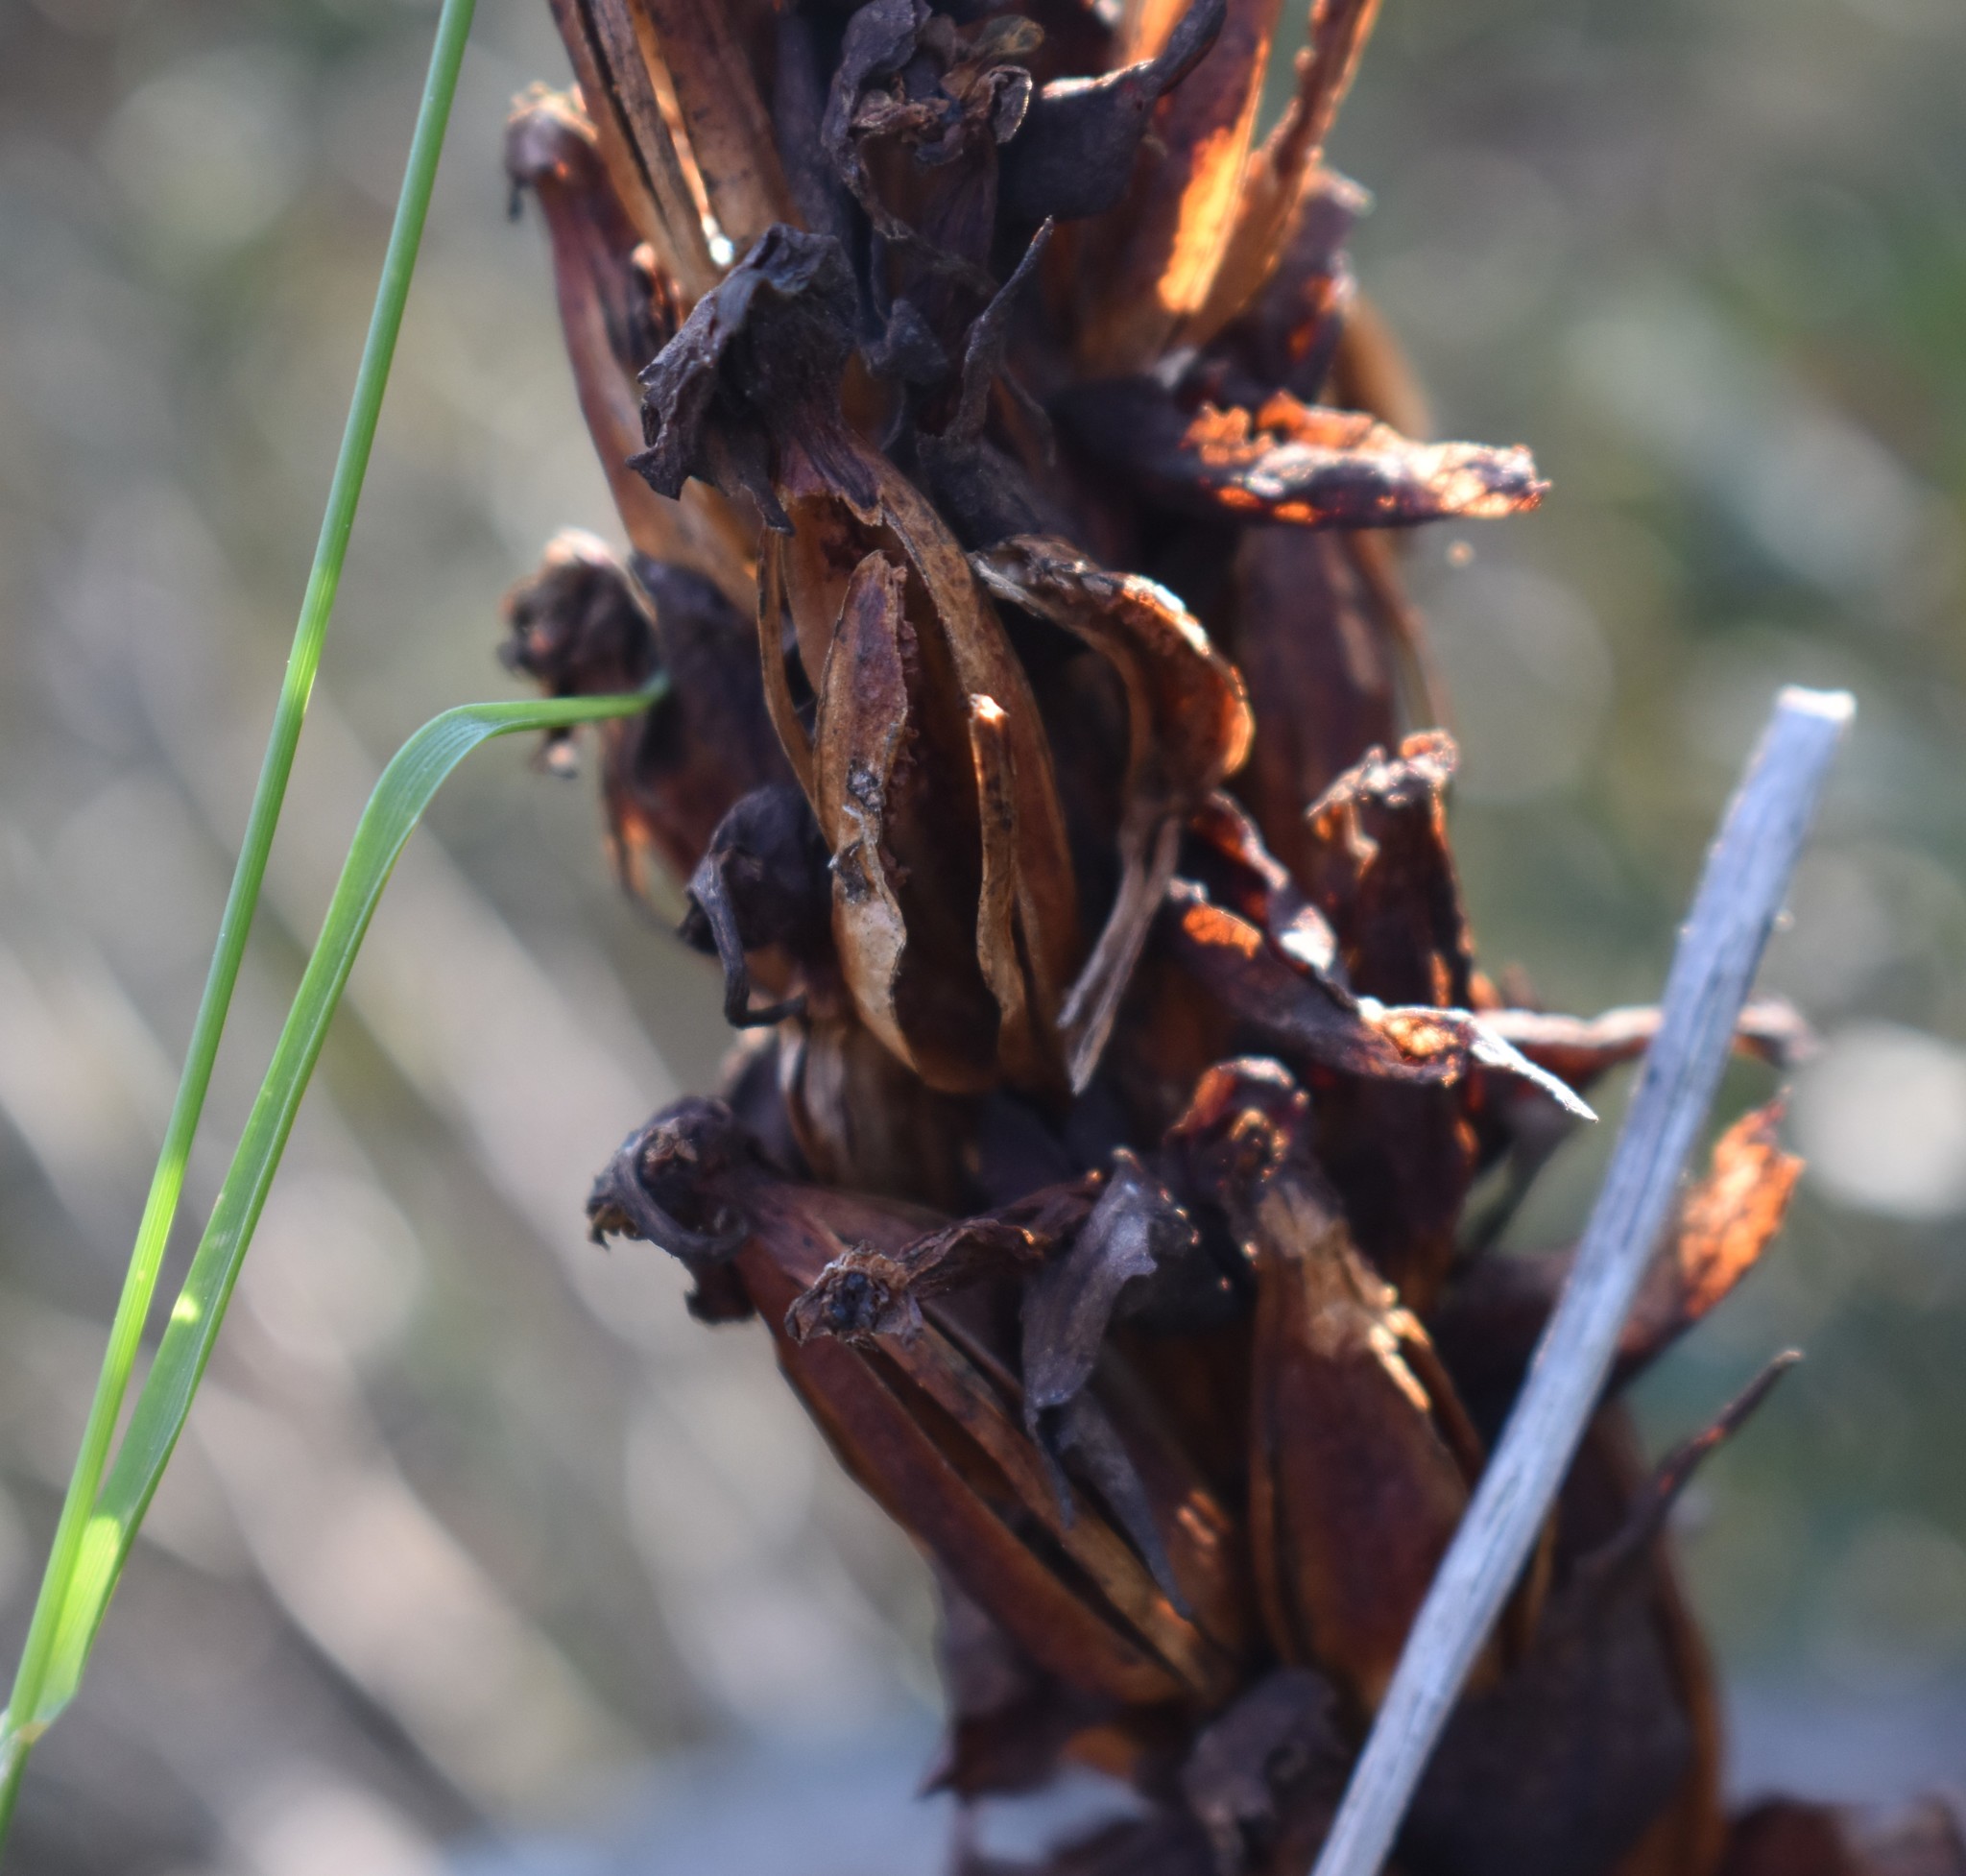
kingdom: Plantae
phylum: Tracheophyta
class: Liliopsida
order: Asparagales
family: Orchidaceae
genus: Disa
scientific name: Disa cornuta
